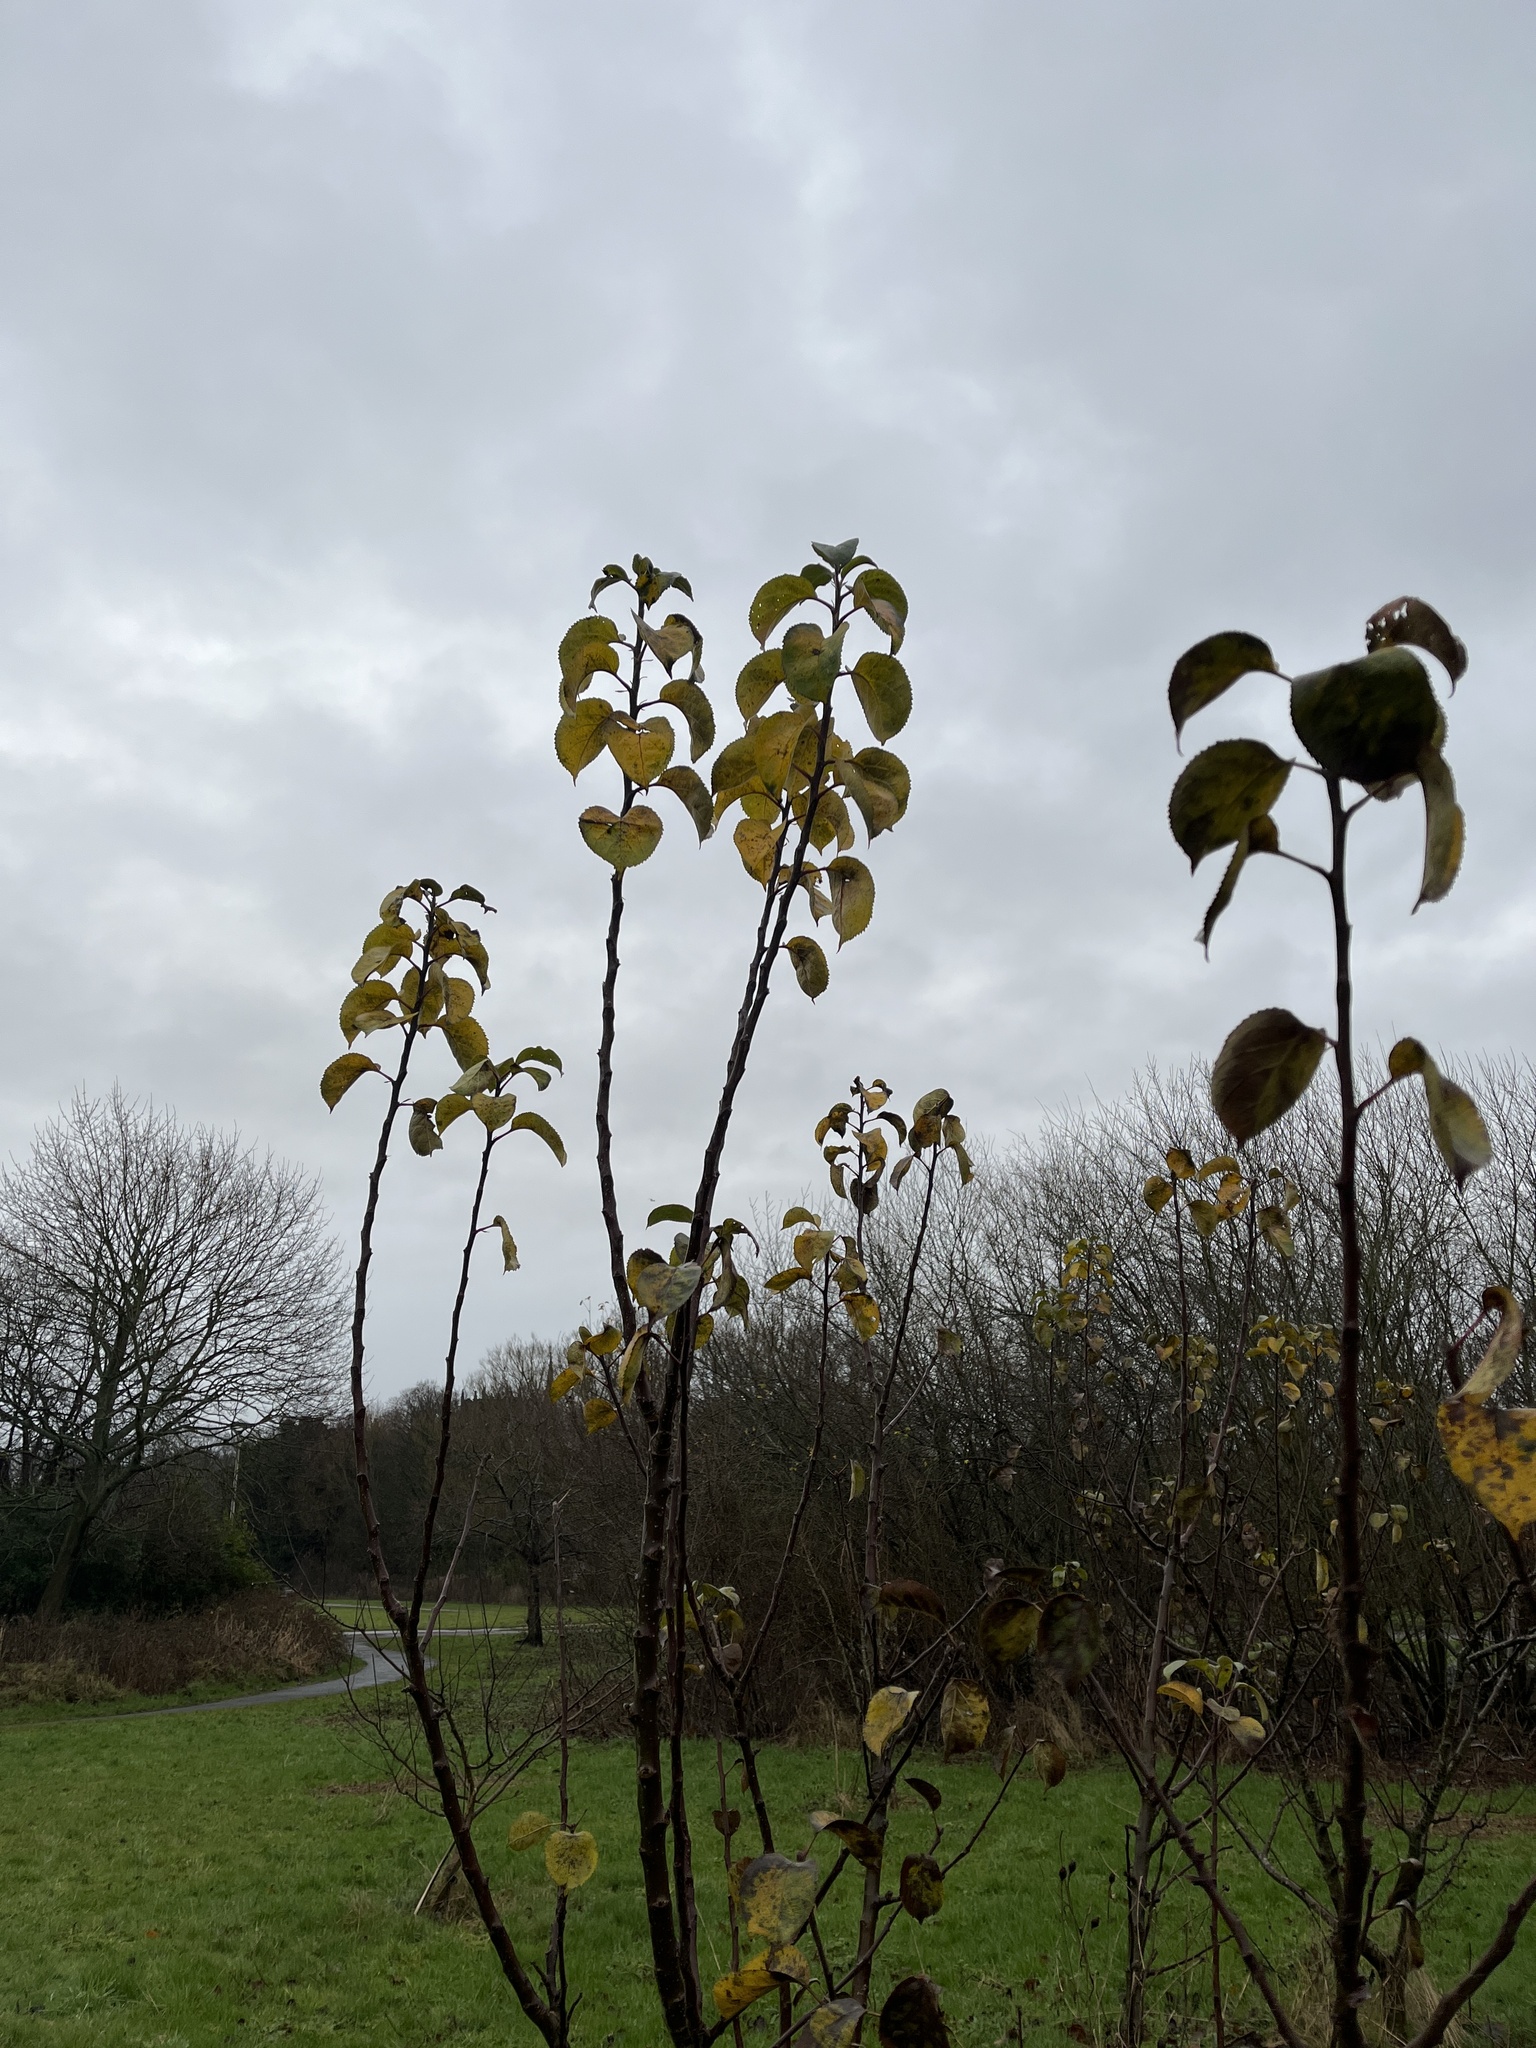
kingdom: Plantae
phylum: Tracheophyta
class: Magnoliopsida
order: Rosales
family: Rosaceae
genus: Malus
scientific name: Malus domestica
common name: Apple
